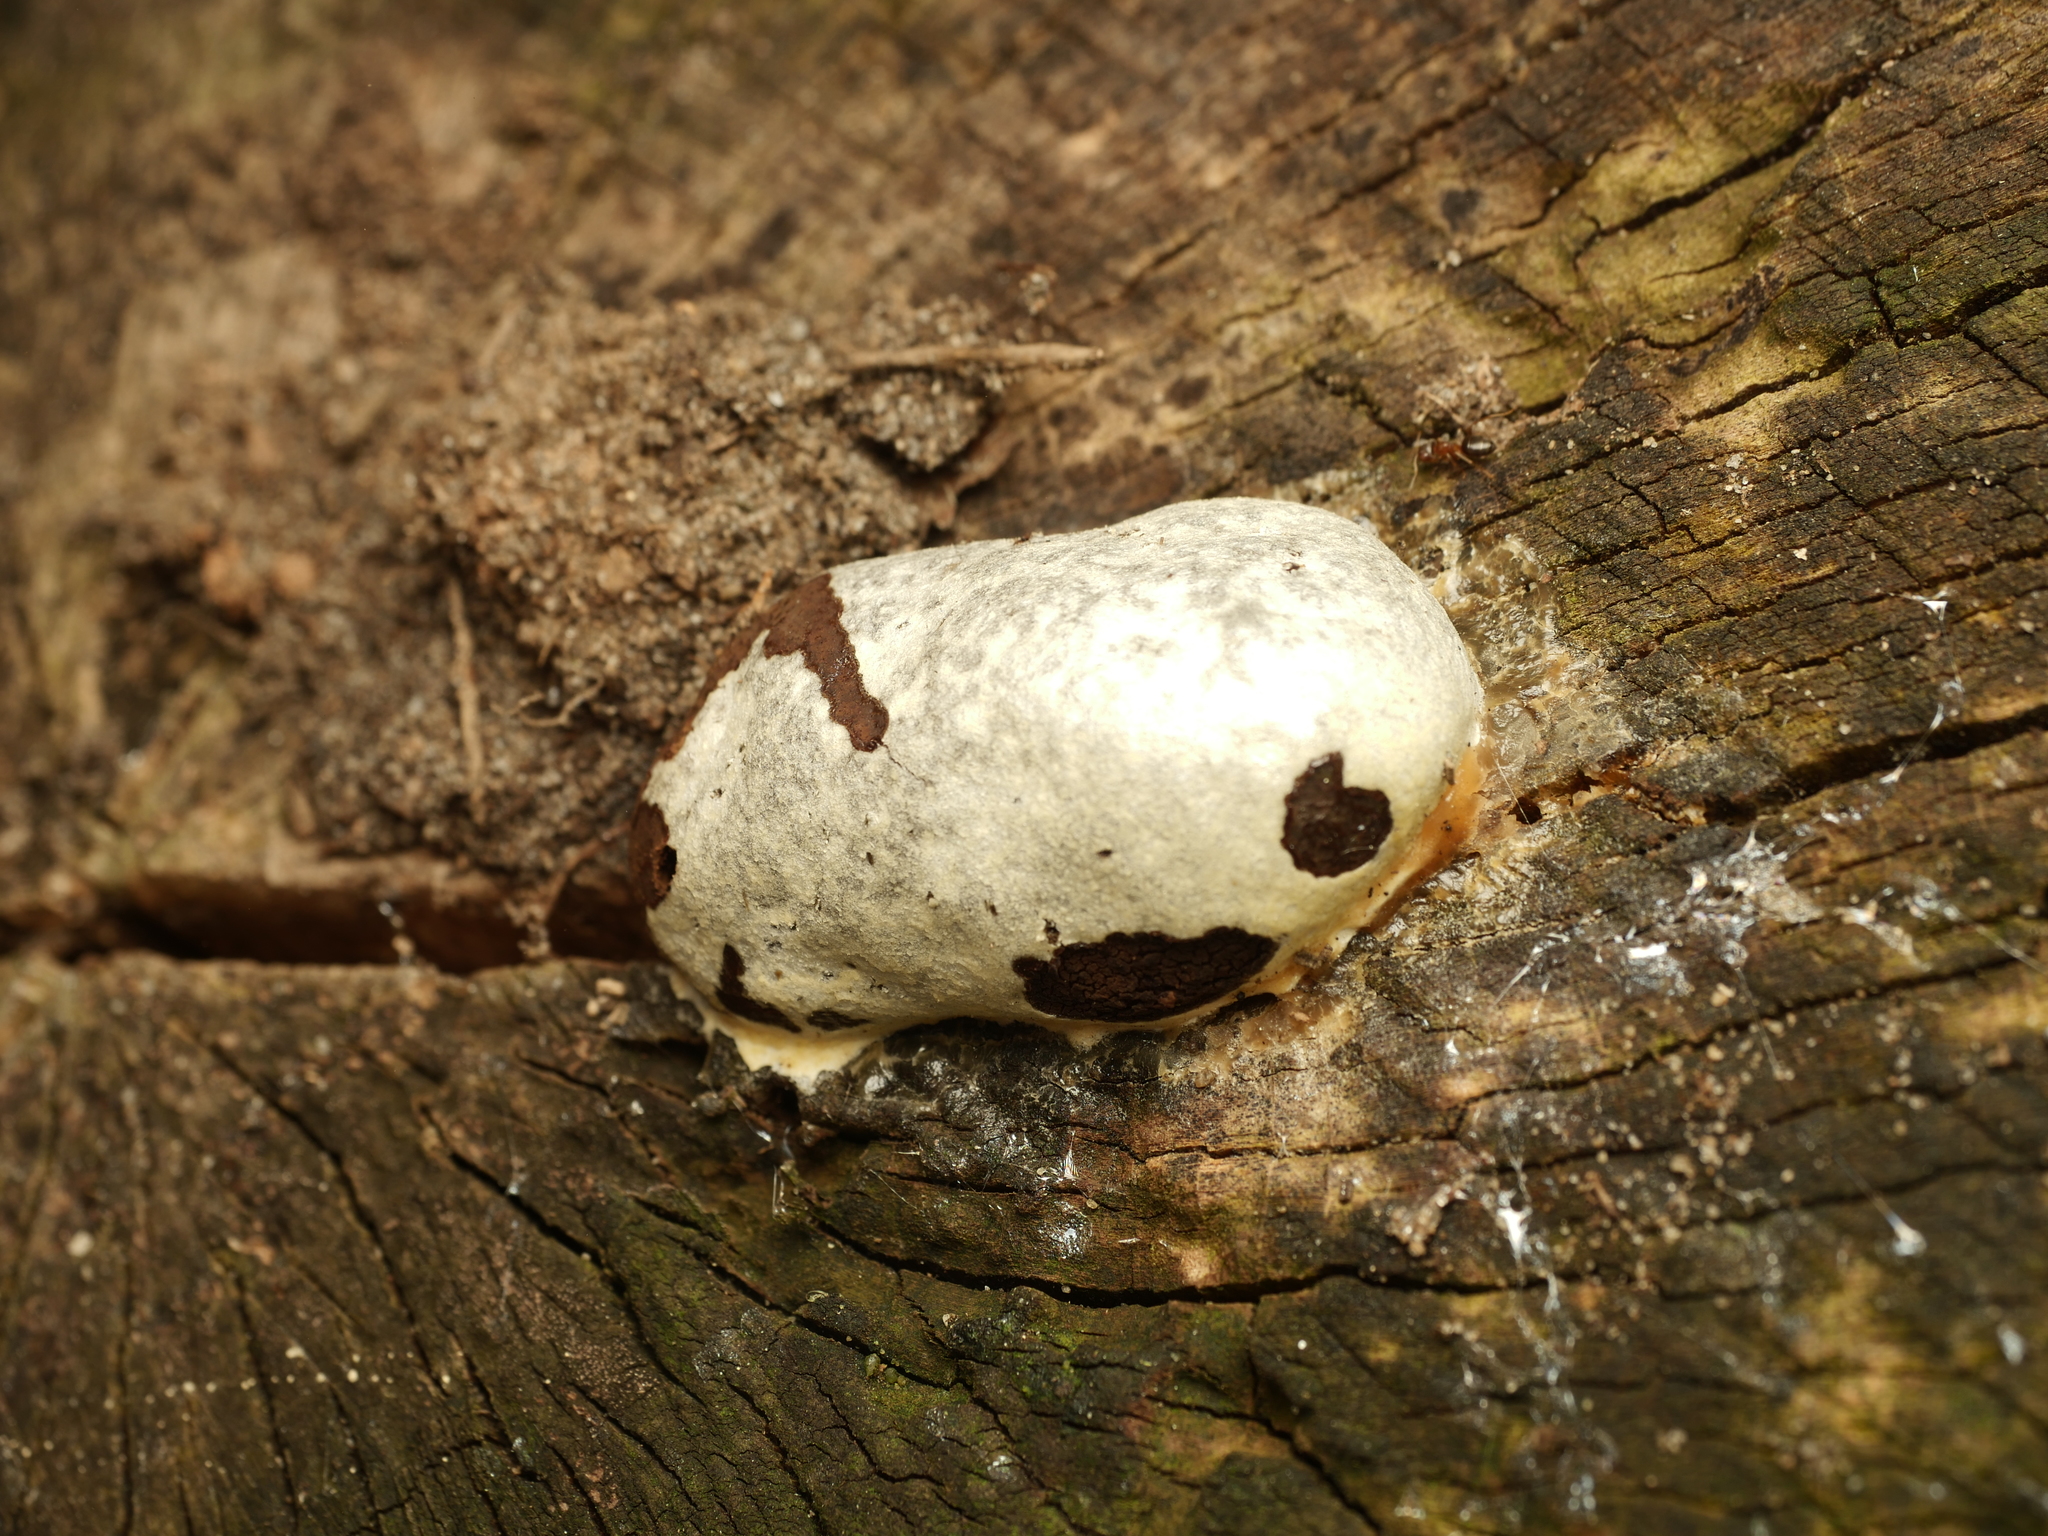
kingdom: Protozoa
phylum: Mycetozoa
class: Myxomycetes
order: Cribrariales
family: Tubiferaceae
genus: Reticularia
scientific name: Reticularia lycoperdon
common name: False puffball
